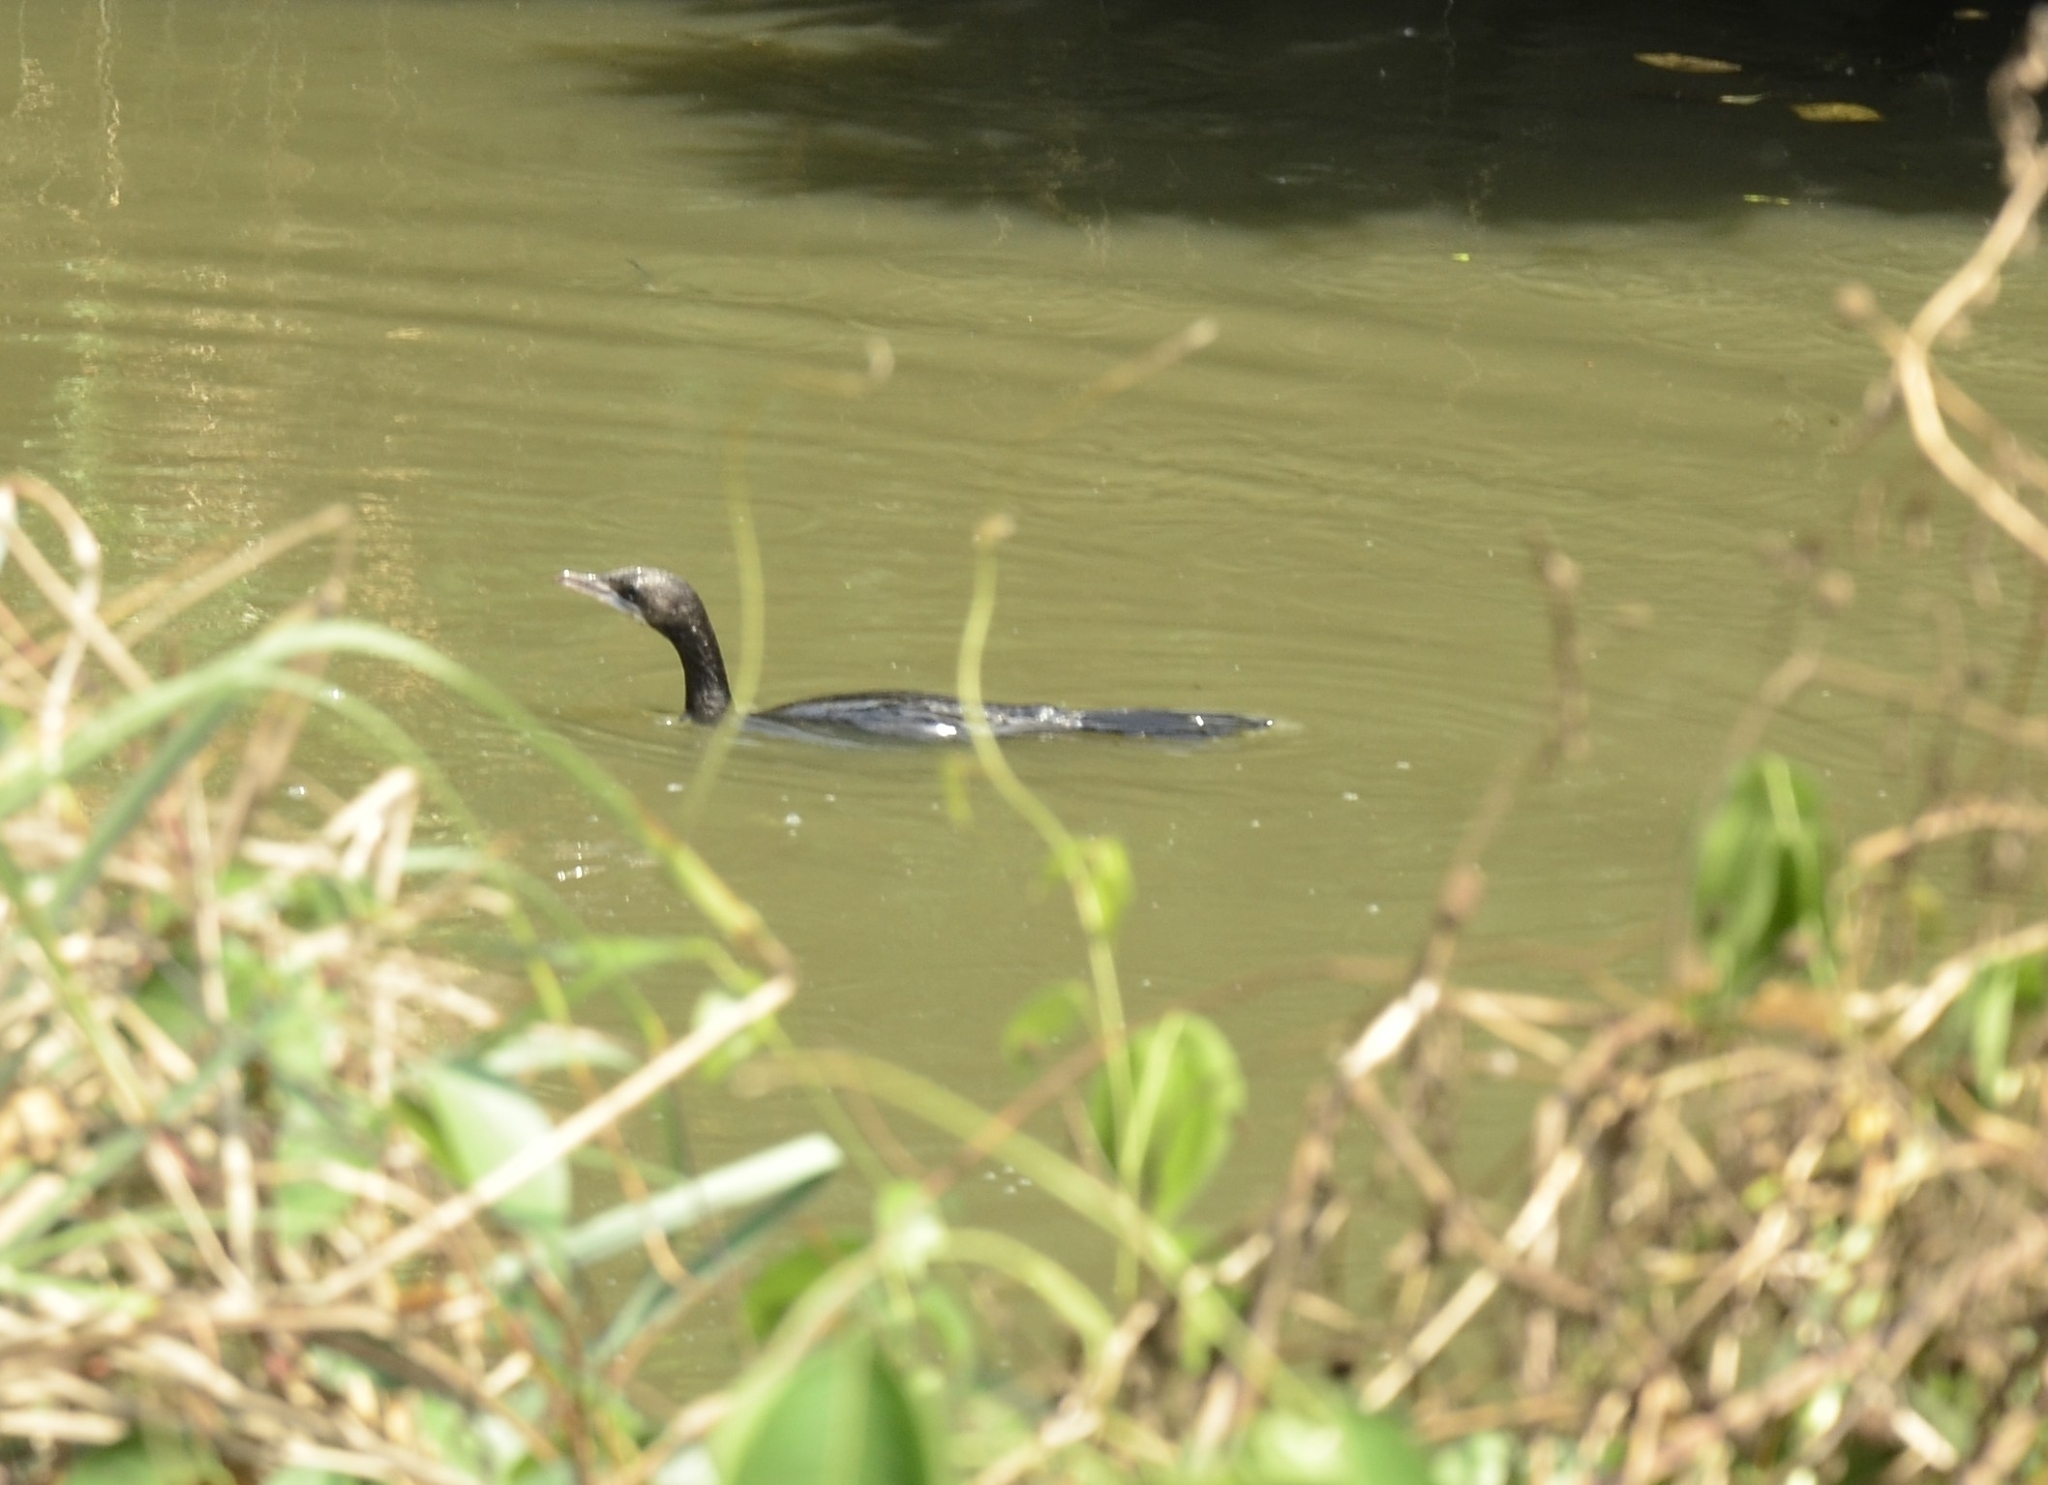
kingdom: Animalia
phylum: Chordata
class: Aves
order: Suliformes
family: Phalacrocoracidae
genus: Microcarbo
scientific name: Microcarbo niger
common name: Little cormorant
